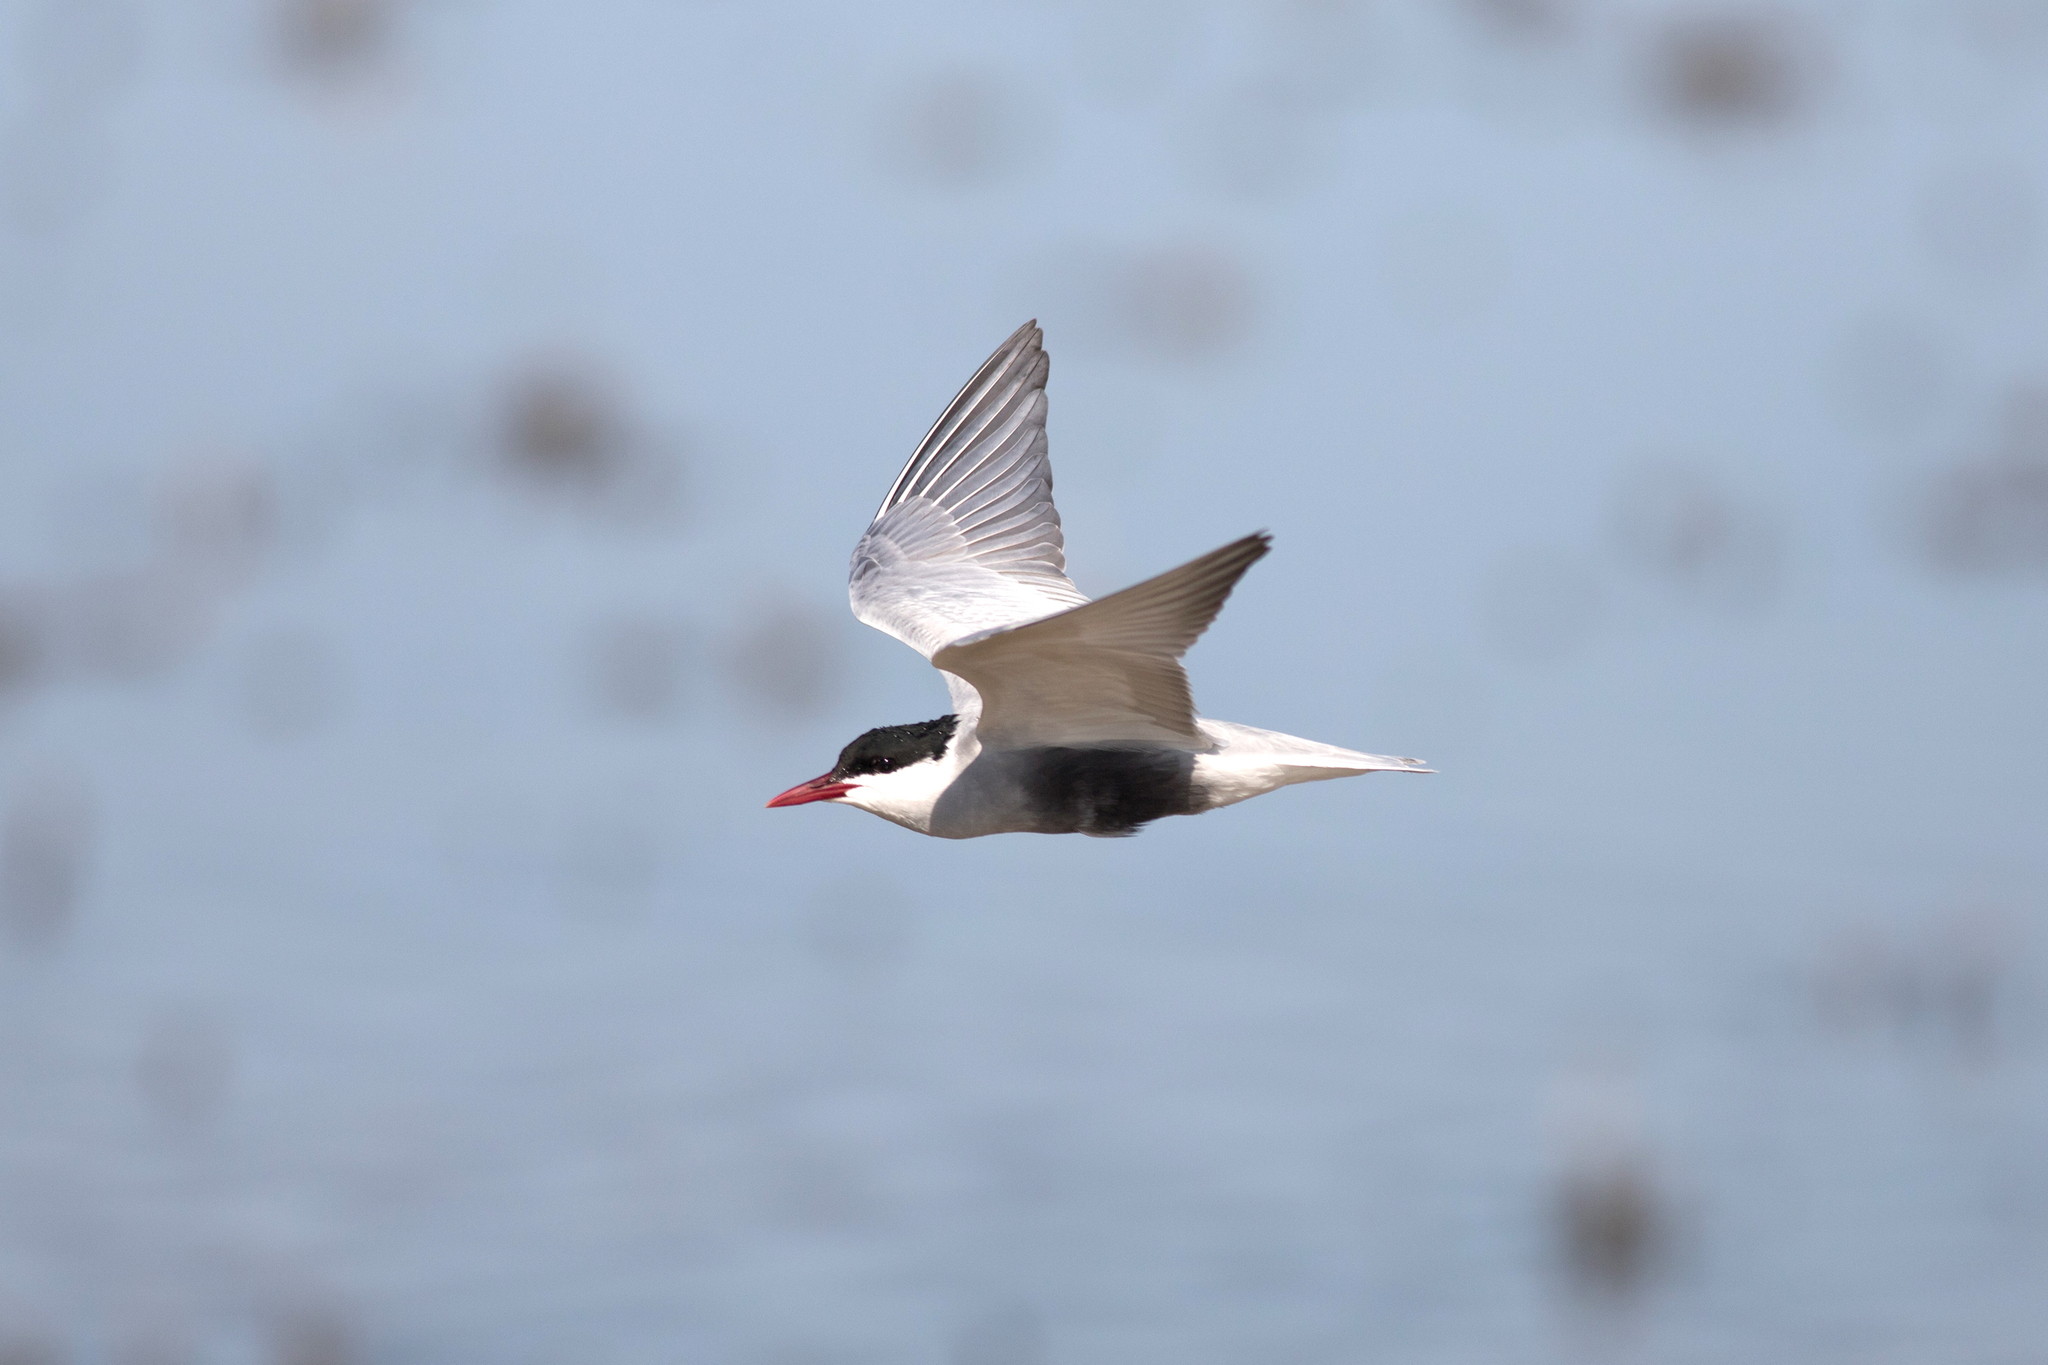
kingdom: Animalia
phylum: Chordata
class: Aves
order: Charadriiformes
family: Laridae
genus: Chlidonias
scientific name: Chlidonias hybrida
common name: Whiskered tern
